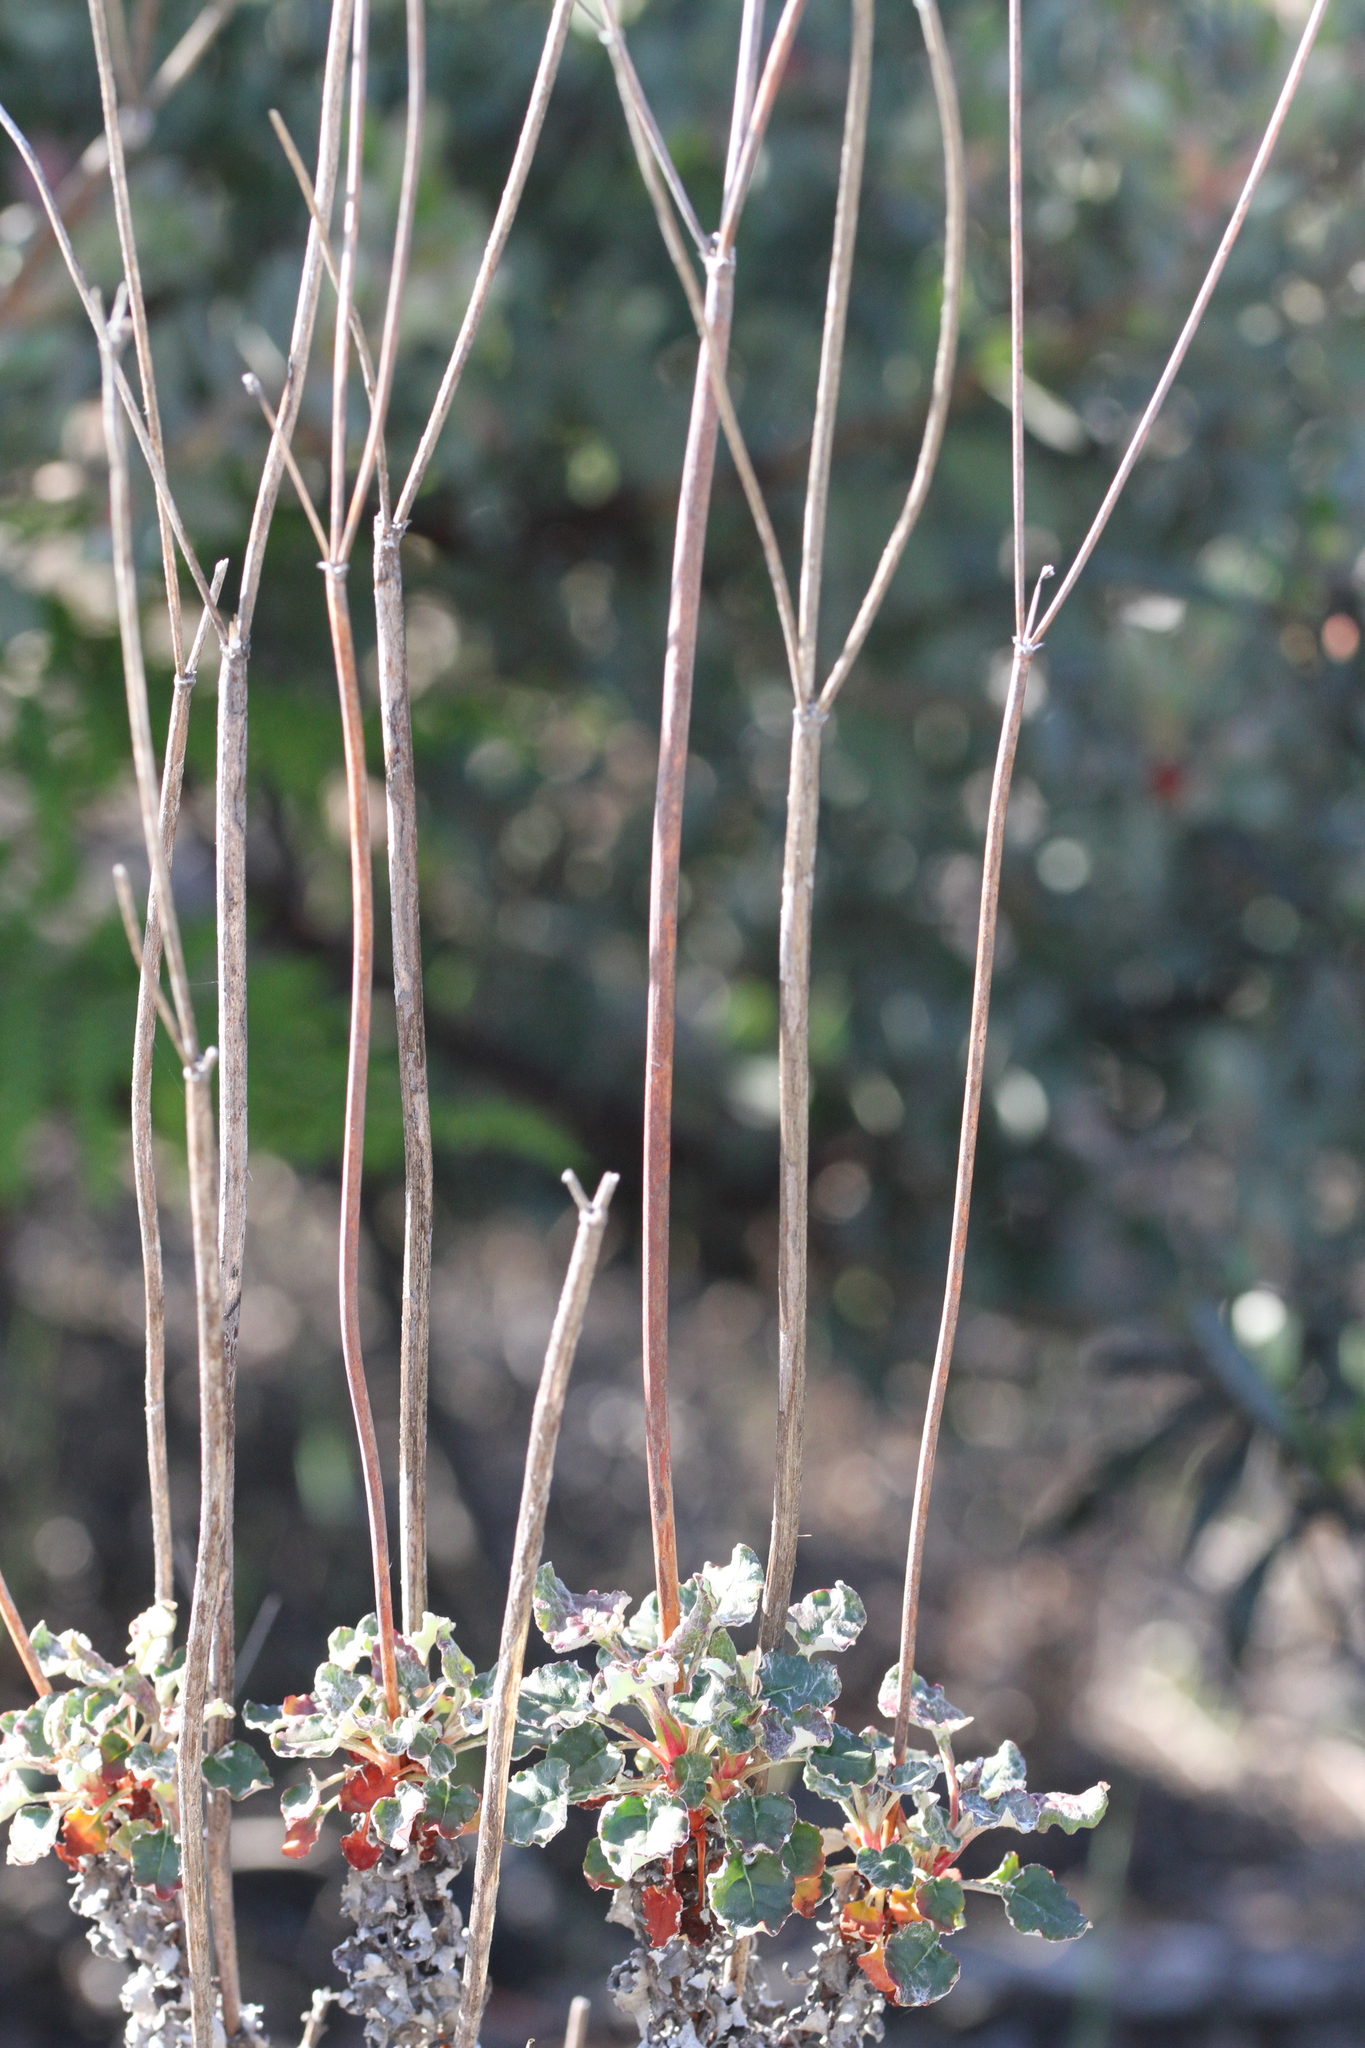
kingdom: Plantae
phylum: Tracheophyta
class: Magnoliopsida
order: Caryophyllales
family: Polygonaceae
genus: Eriogonum
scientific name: Eriogonum nudum
